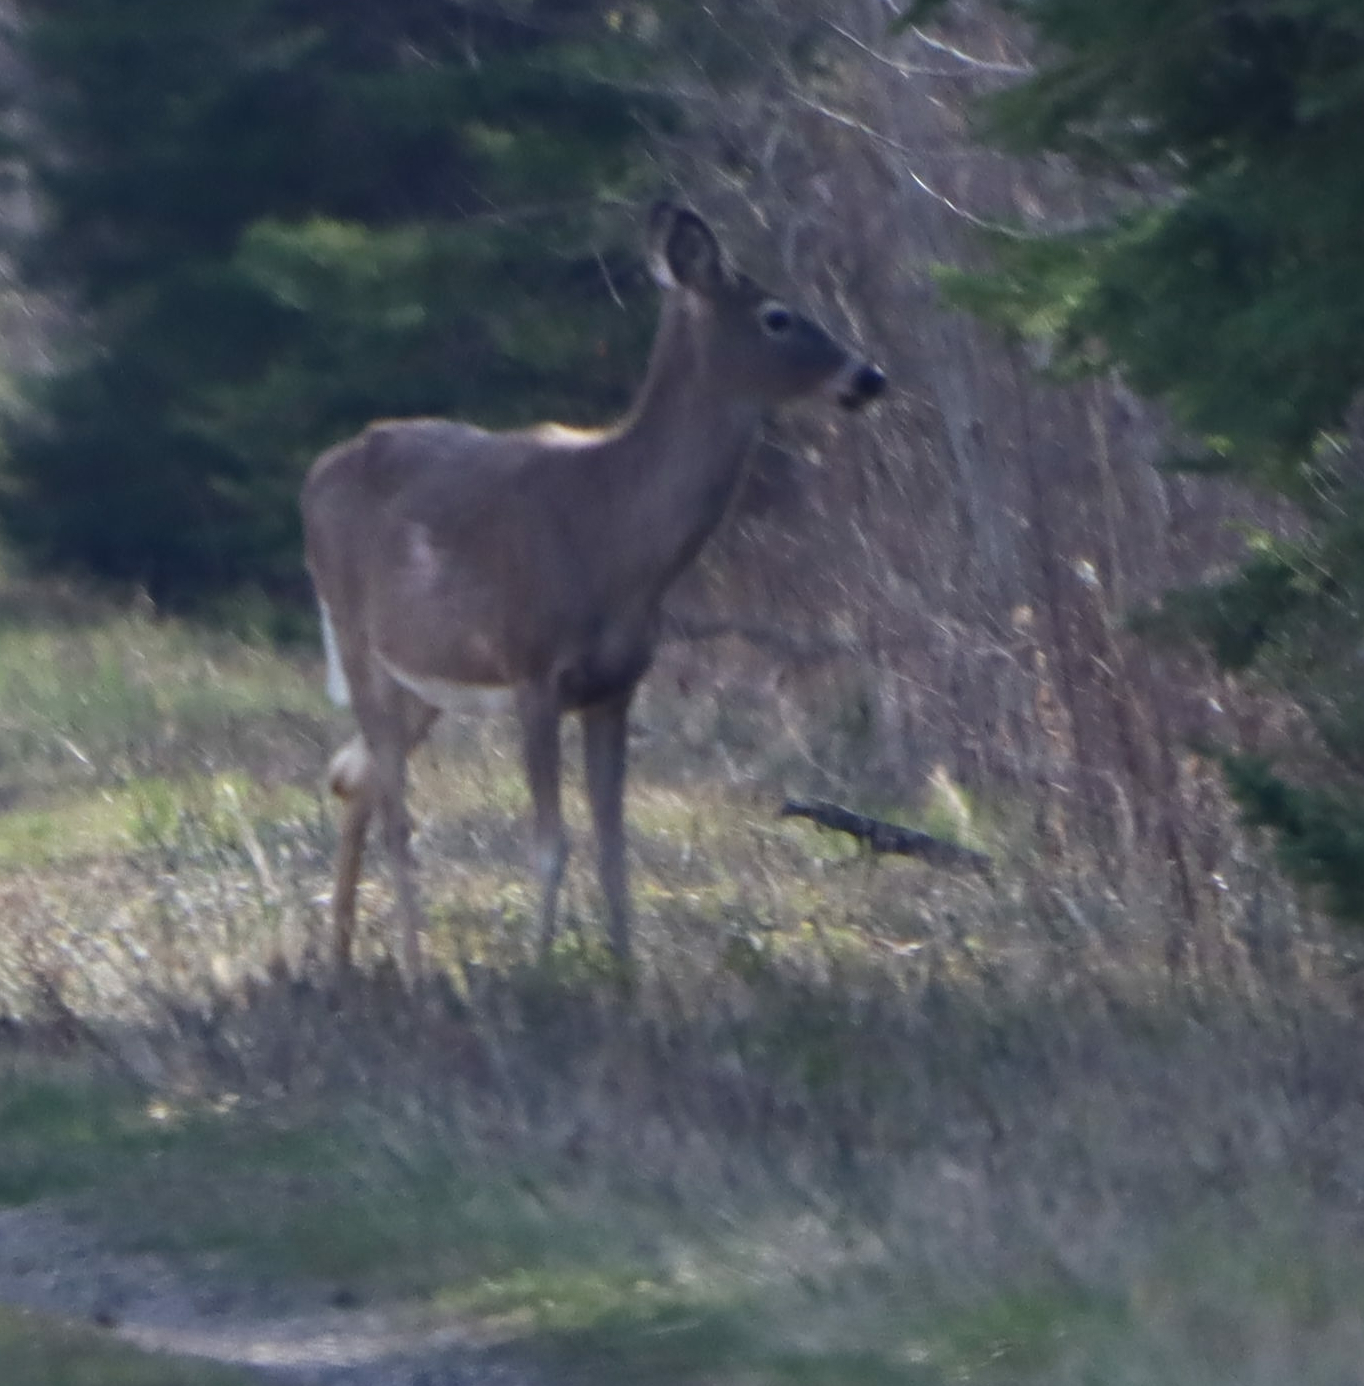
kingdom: Animalia
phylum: Chordata
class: Mammalia
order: Artiodactyla
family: Cervidae
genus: Odocoileus
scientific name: Odocoileus virginianus
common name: White-tailed deer
